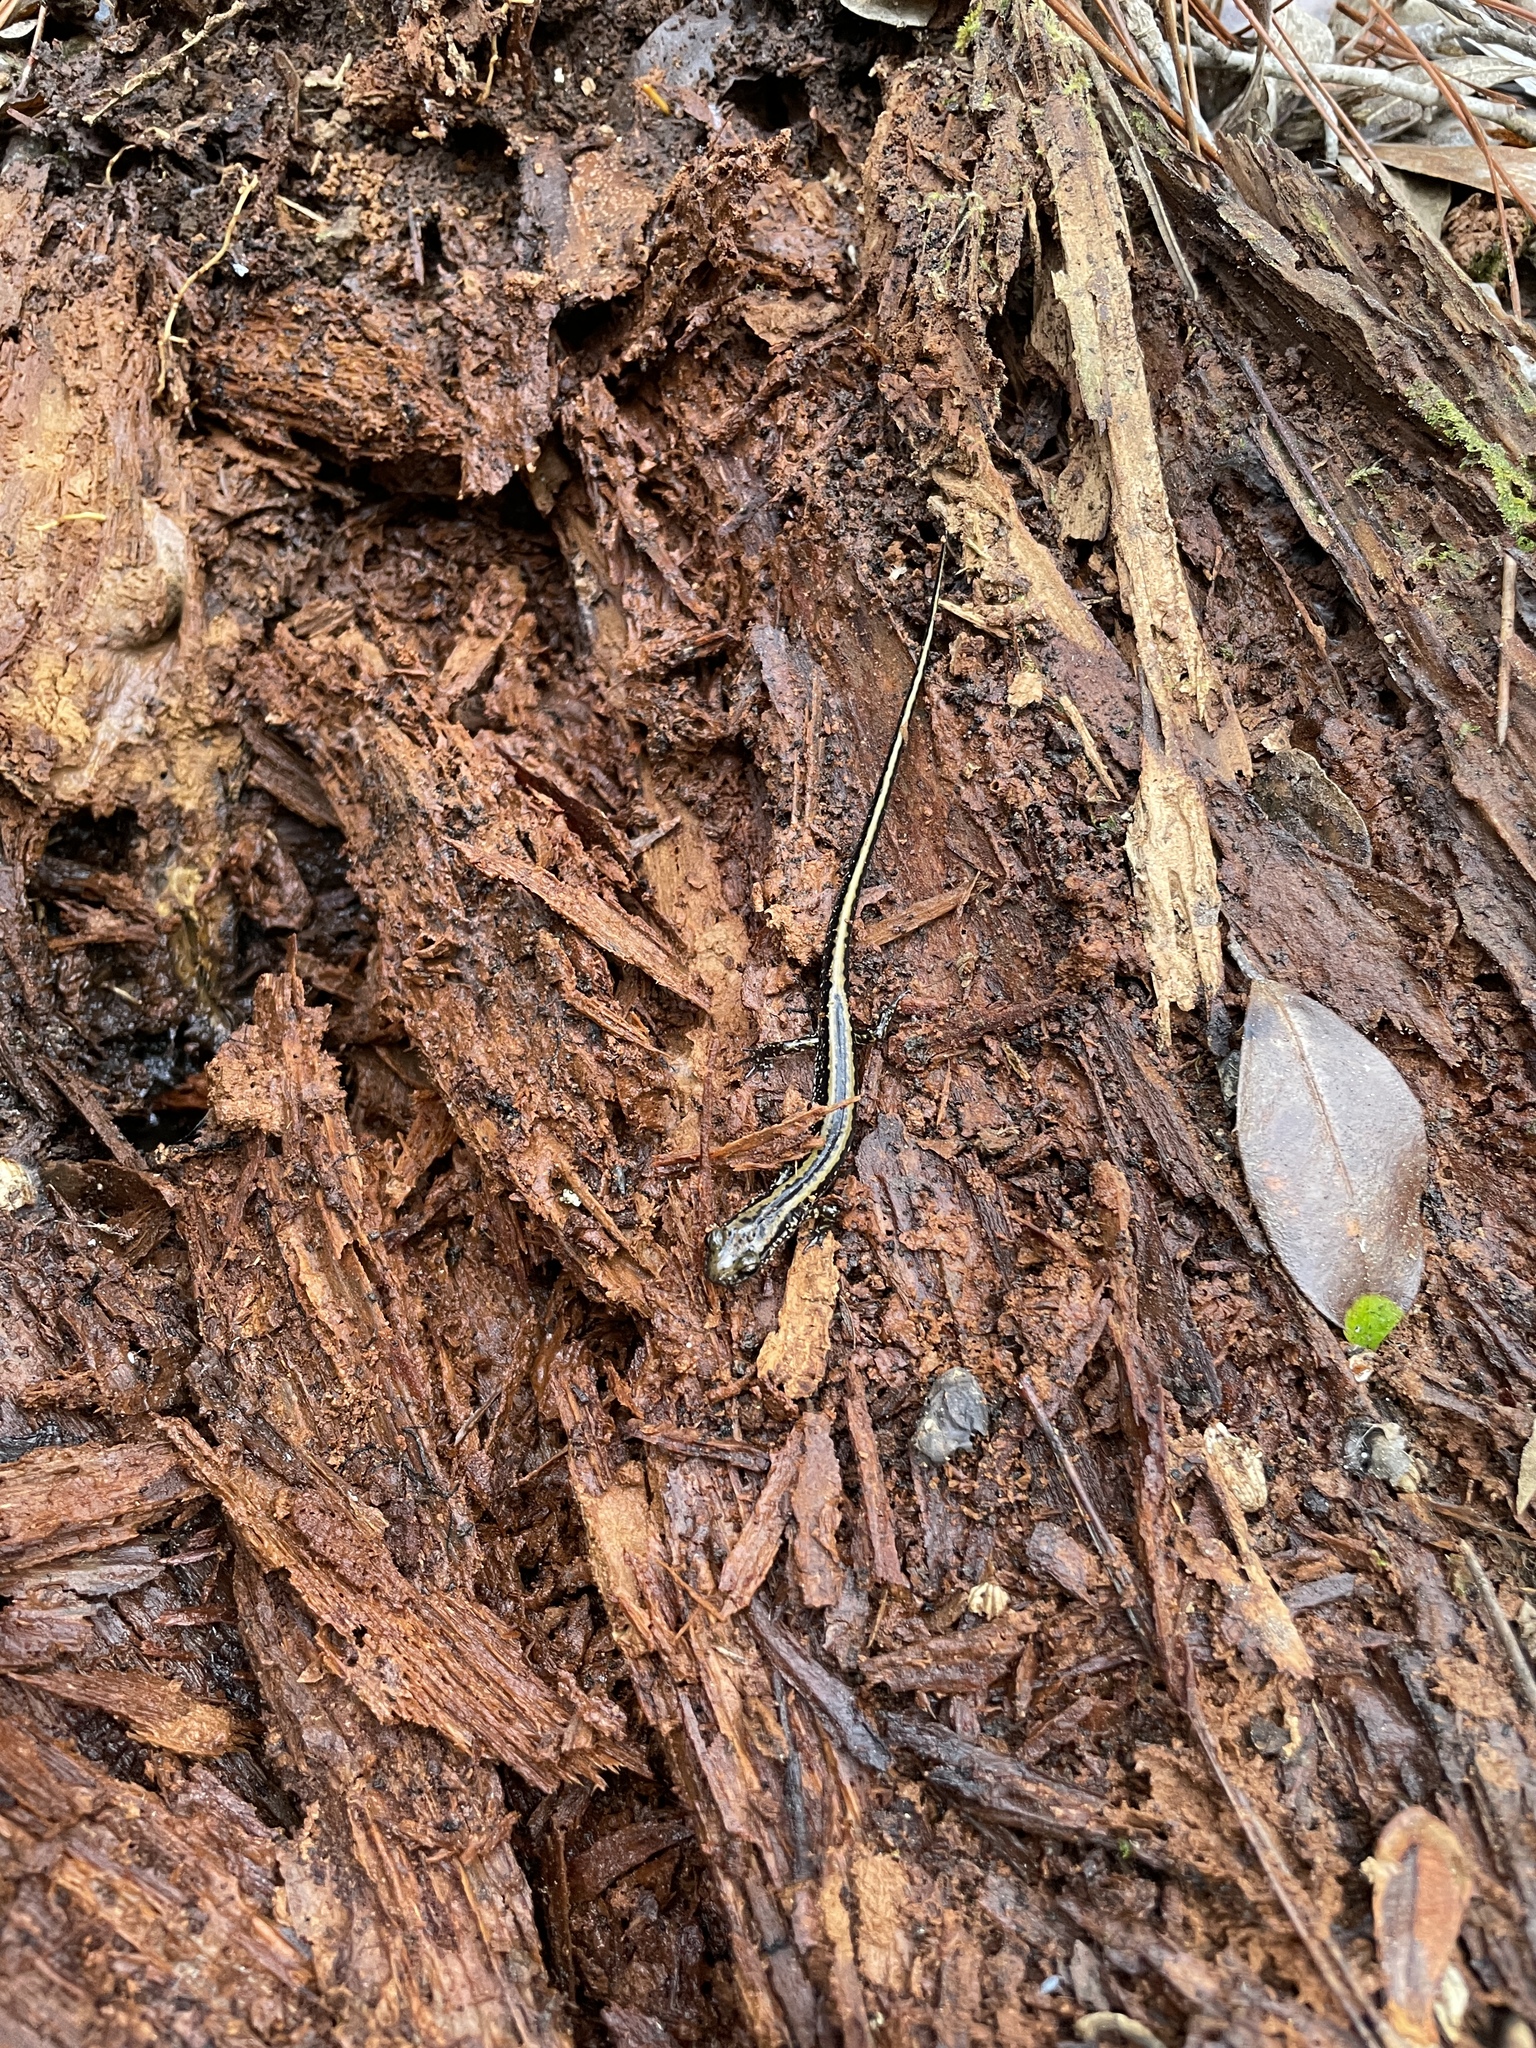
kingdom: Animalia
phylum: Chordata
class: Amphibia
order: Caudata
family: Plethodontidae
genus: Eurycea
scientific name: Eurycea guttolineata
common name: Three-lined salamander
